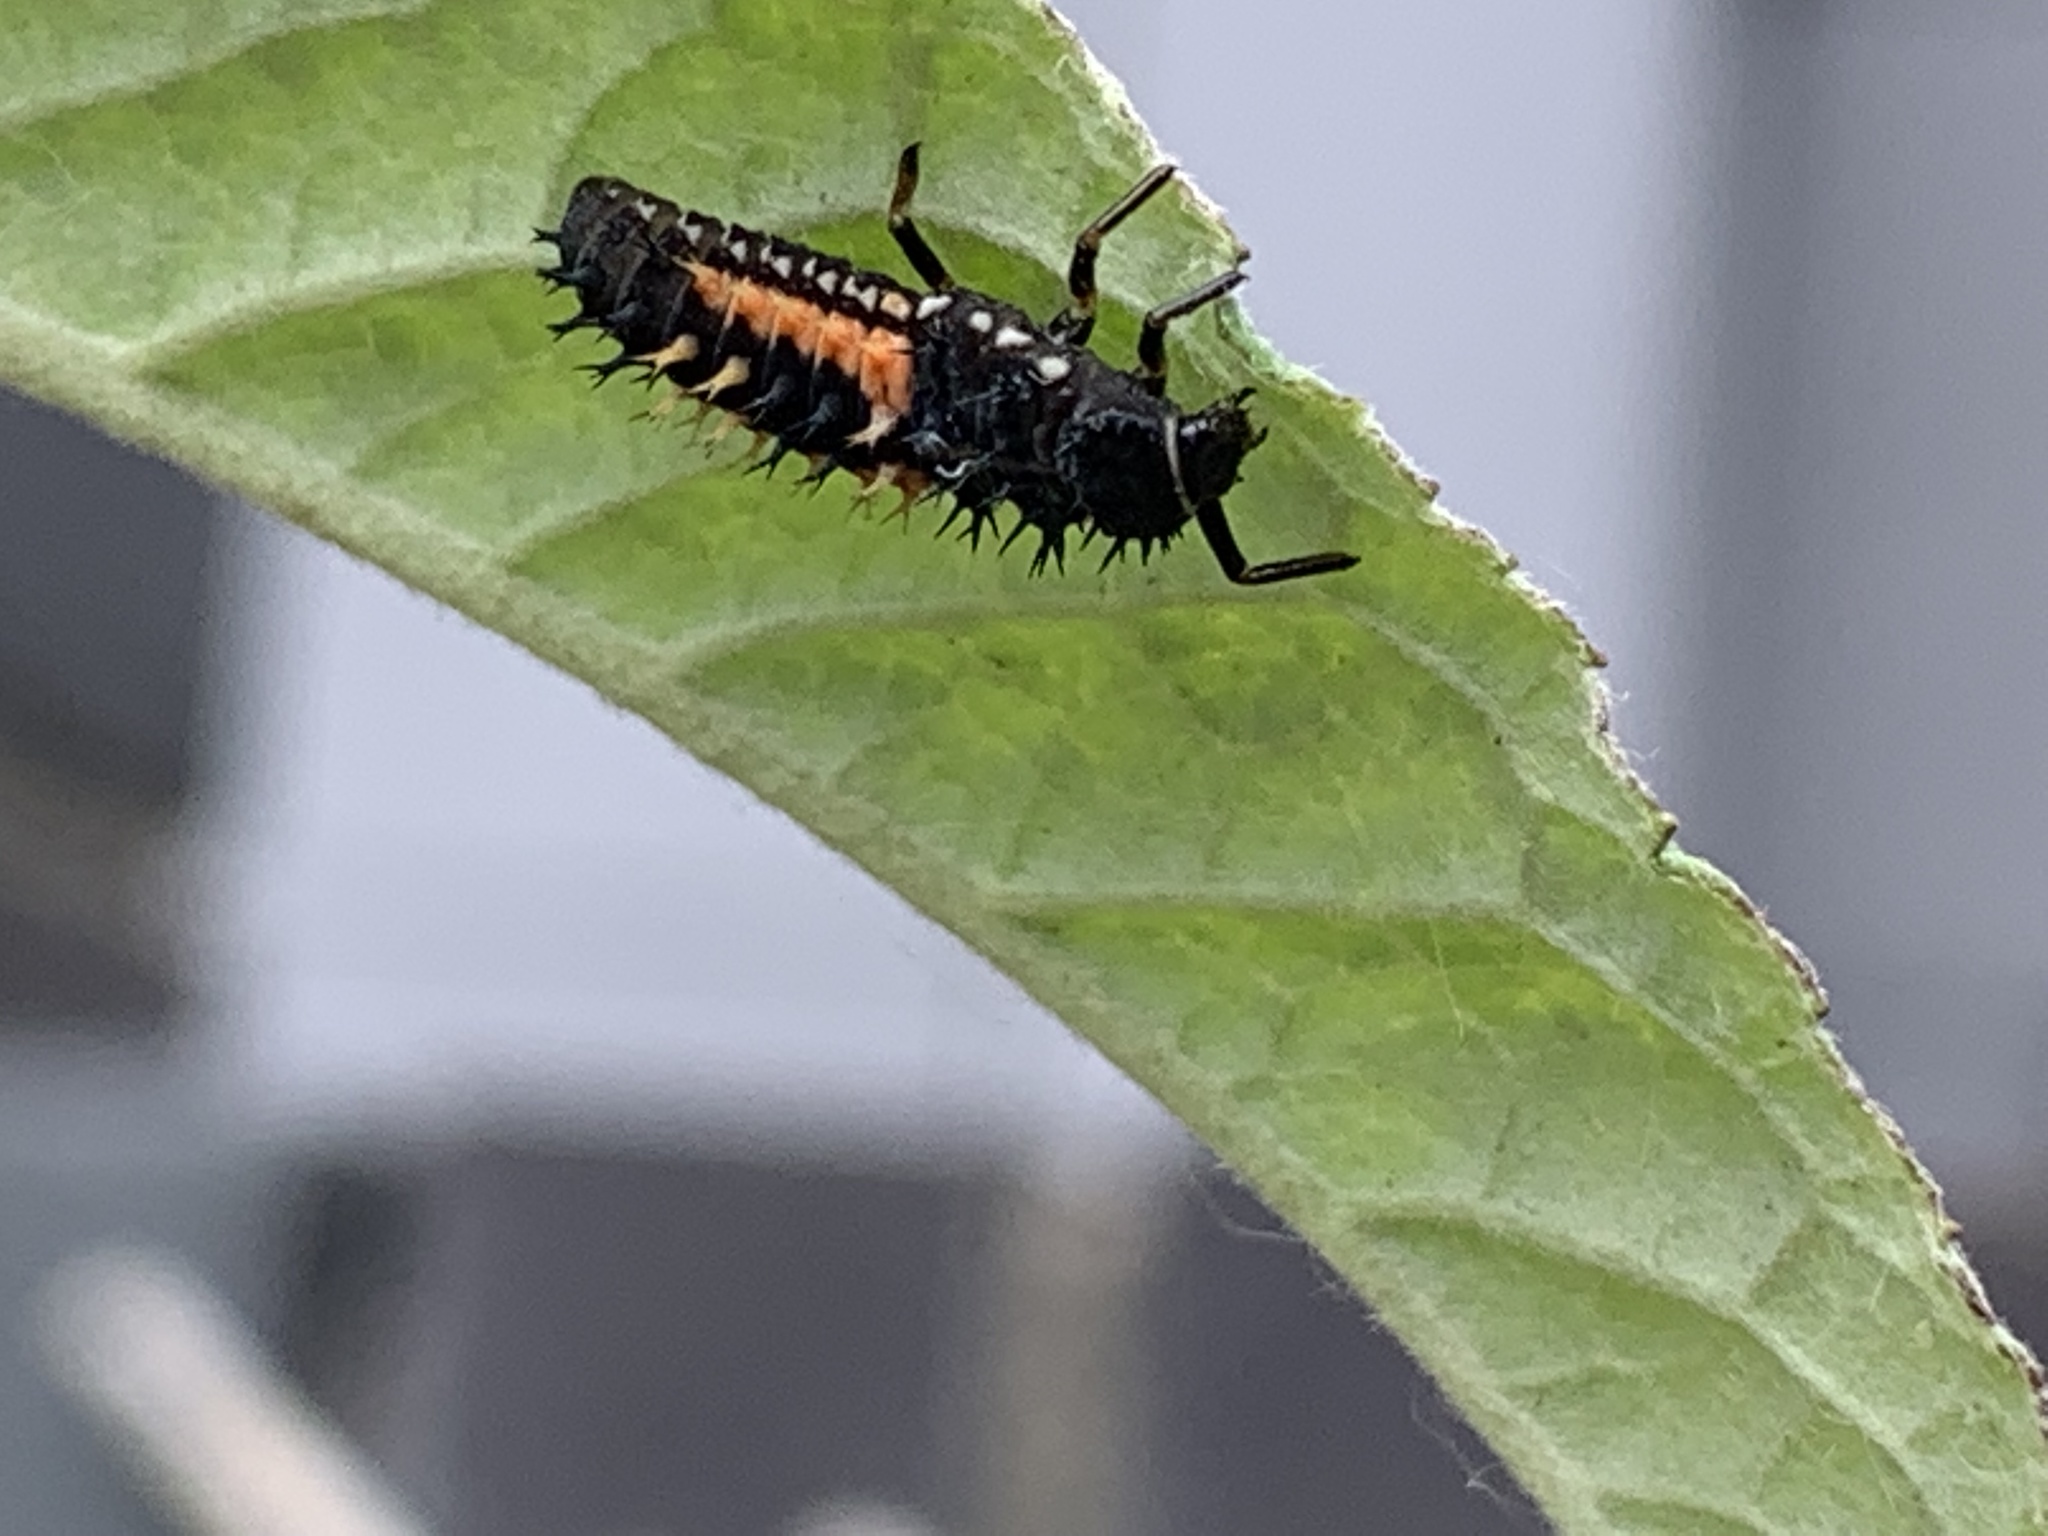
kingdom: Animalia
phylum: Arthropoda
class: Insecta
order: Coleoptera
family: Coccinellidae
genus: Harmonia
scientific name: Harmonia axyridis
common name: Harlequin ladybird
